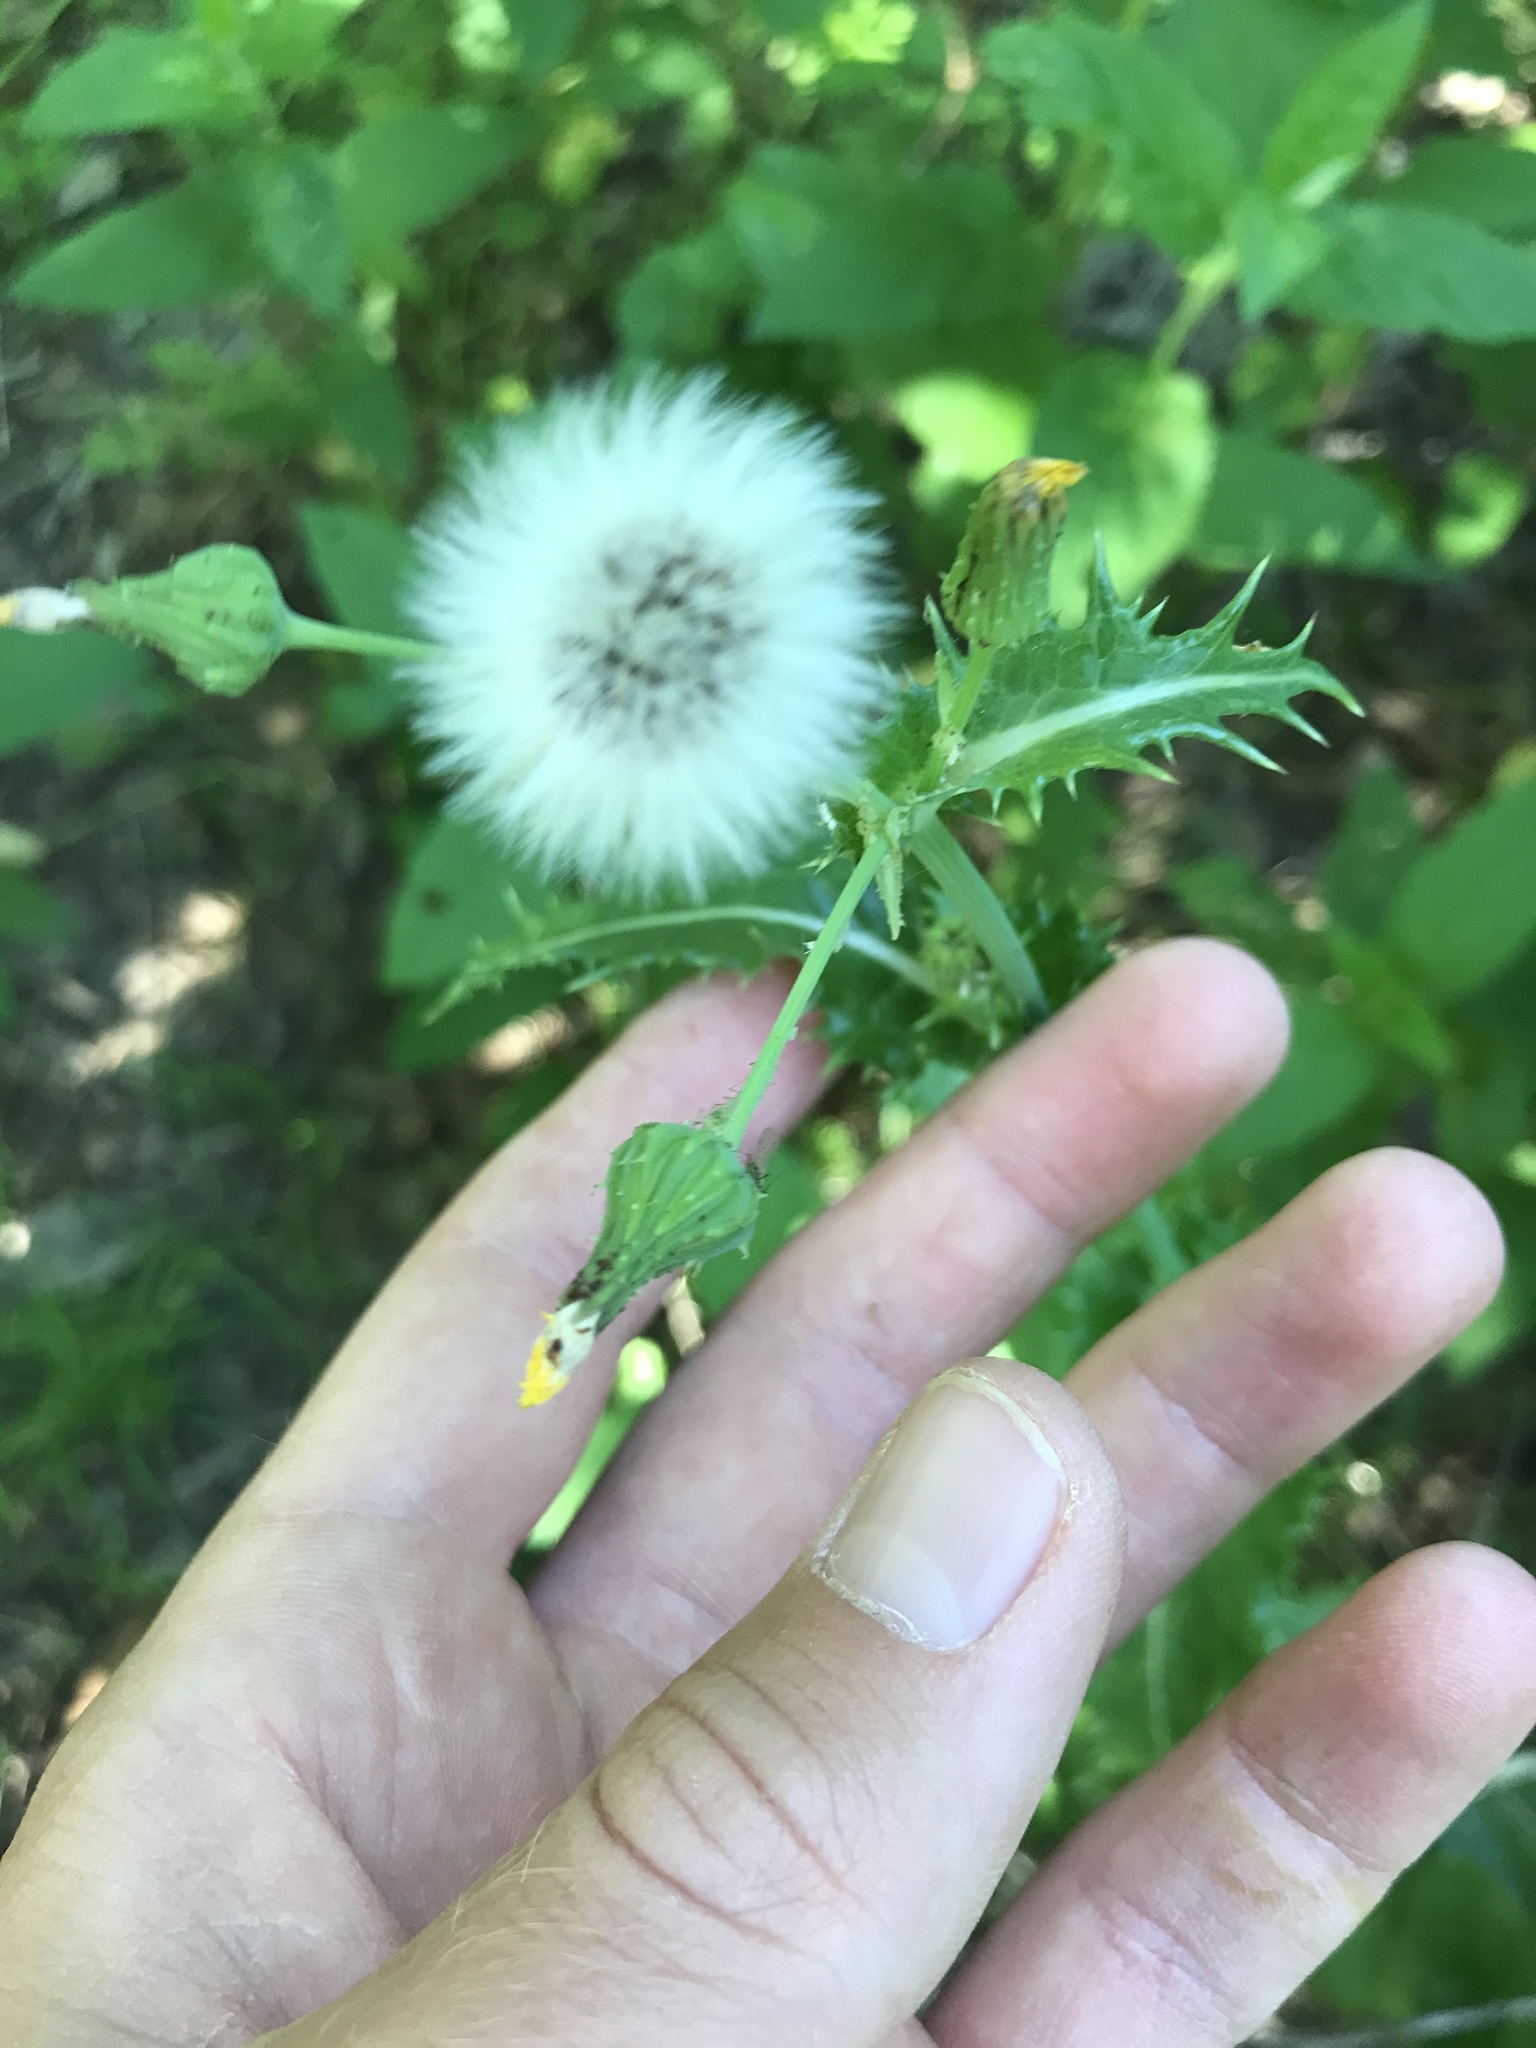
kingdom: Plantae
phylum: Tracheophyta
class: Magnoliopsida
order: Asterales
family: Asteraceae
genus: Sonchus
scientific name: Sonchus asper
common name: Prickly sow-thistle
